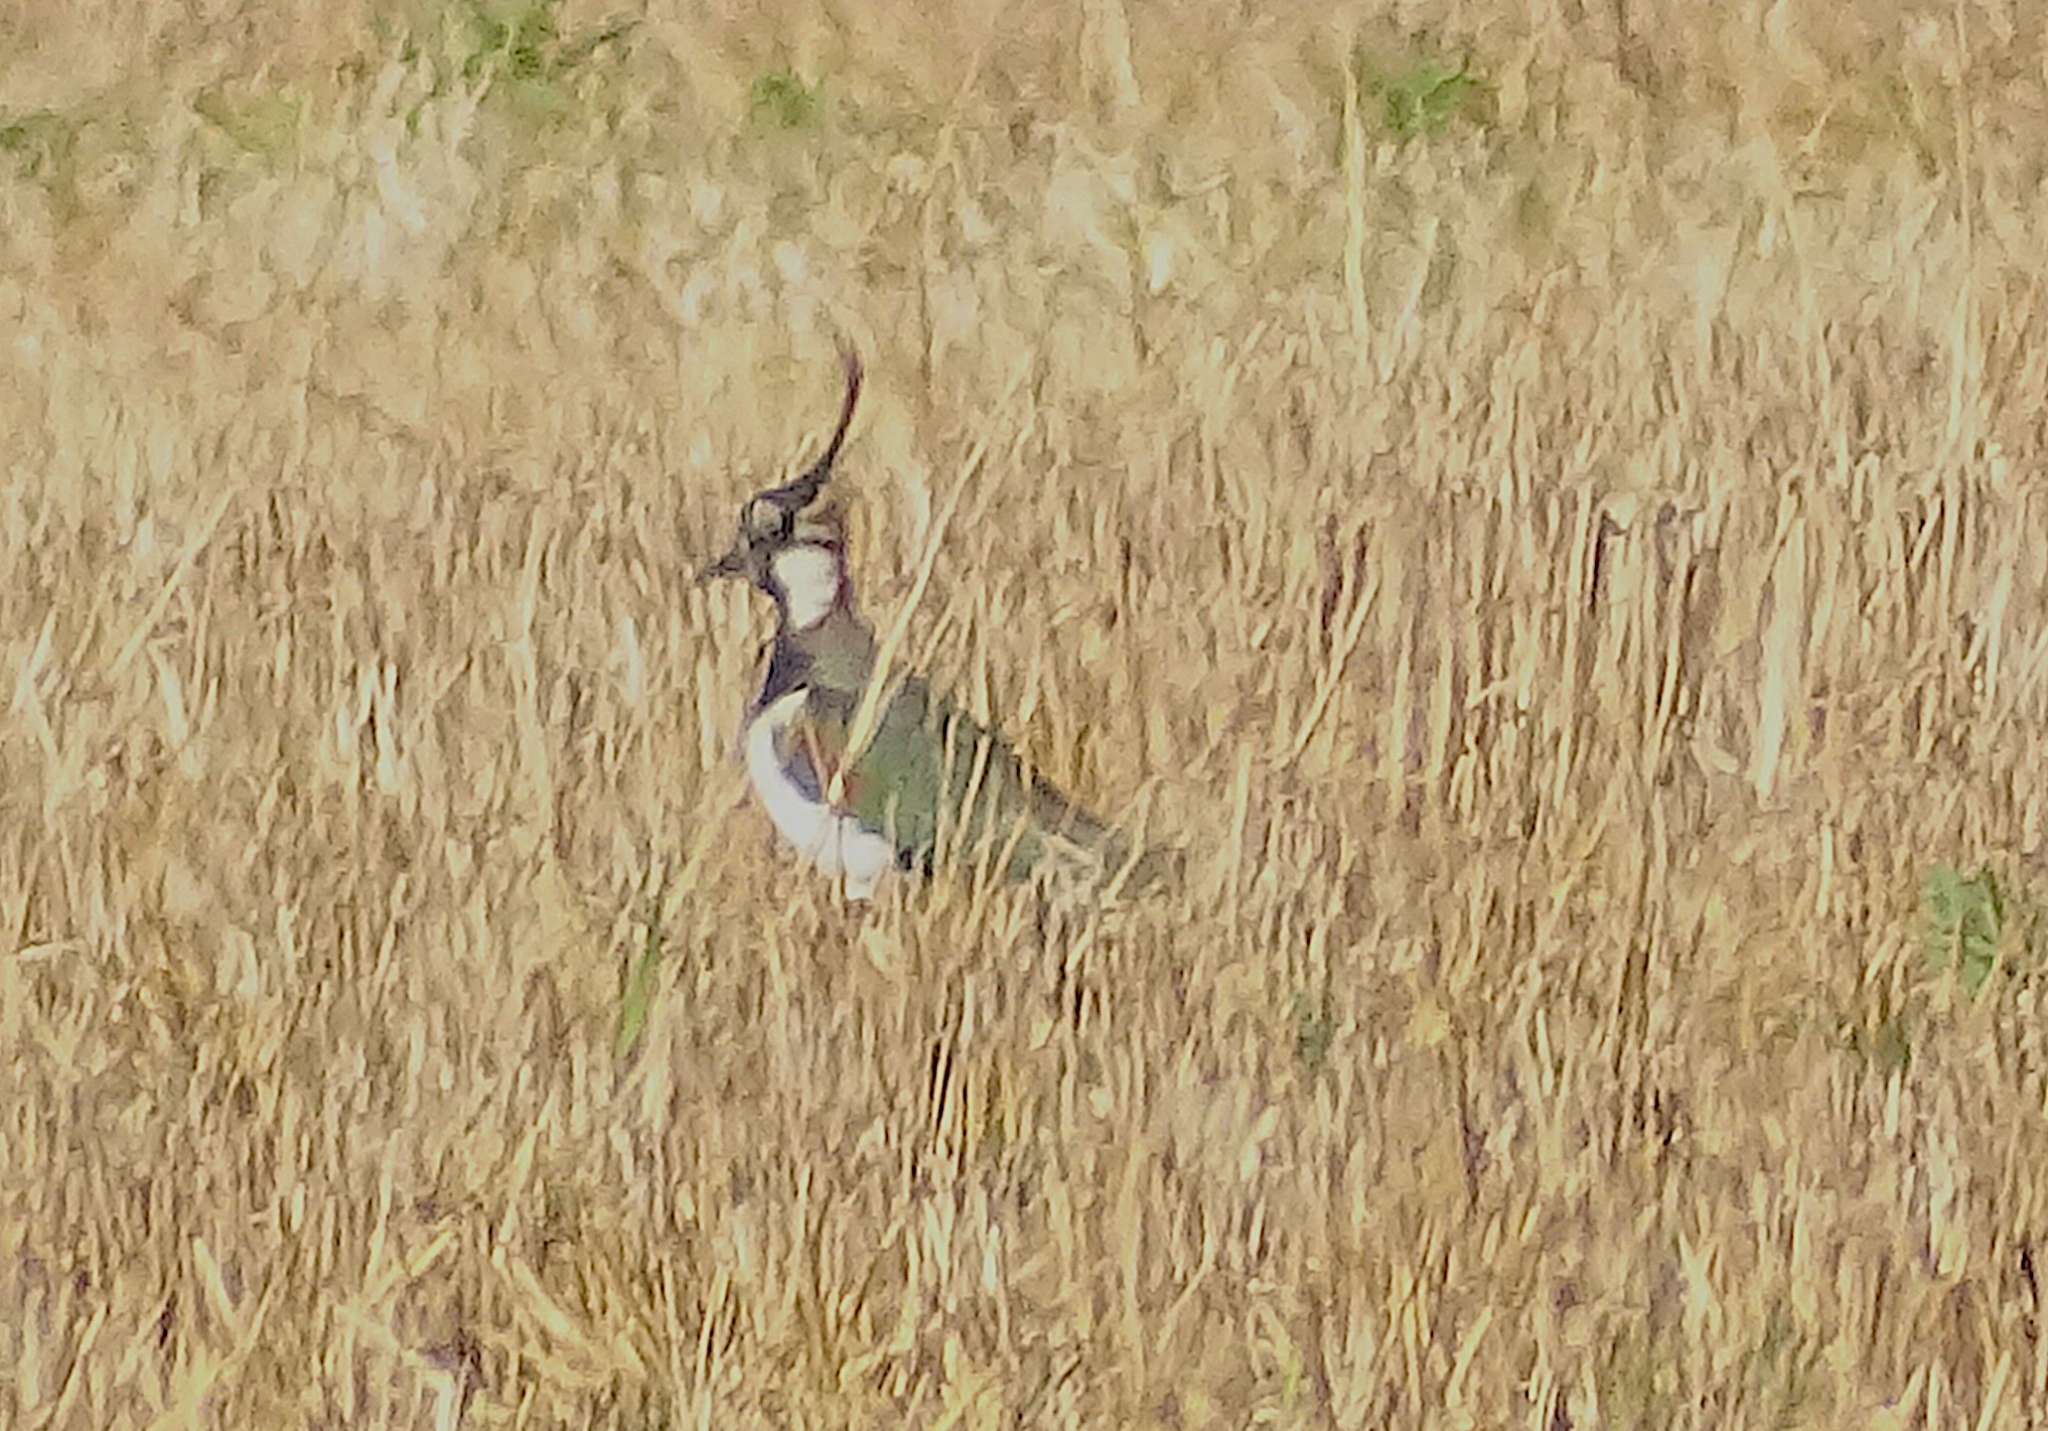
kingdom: Animalia
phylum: Chordata
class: Aves
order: Charadriiformes
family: Charadriidae
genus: Vanellus
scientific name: Vanellus vanellus
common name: Northern lapwing
